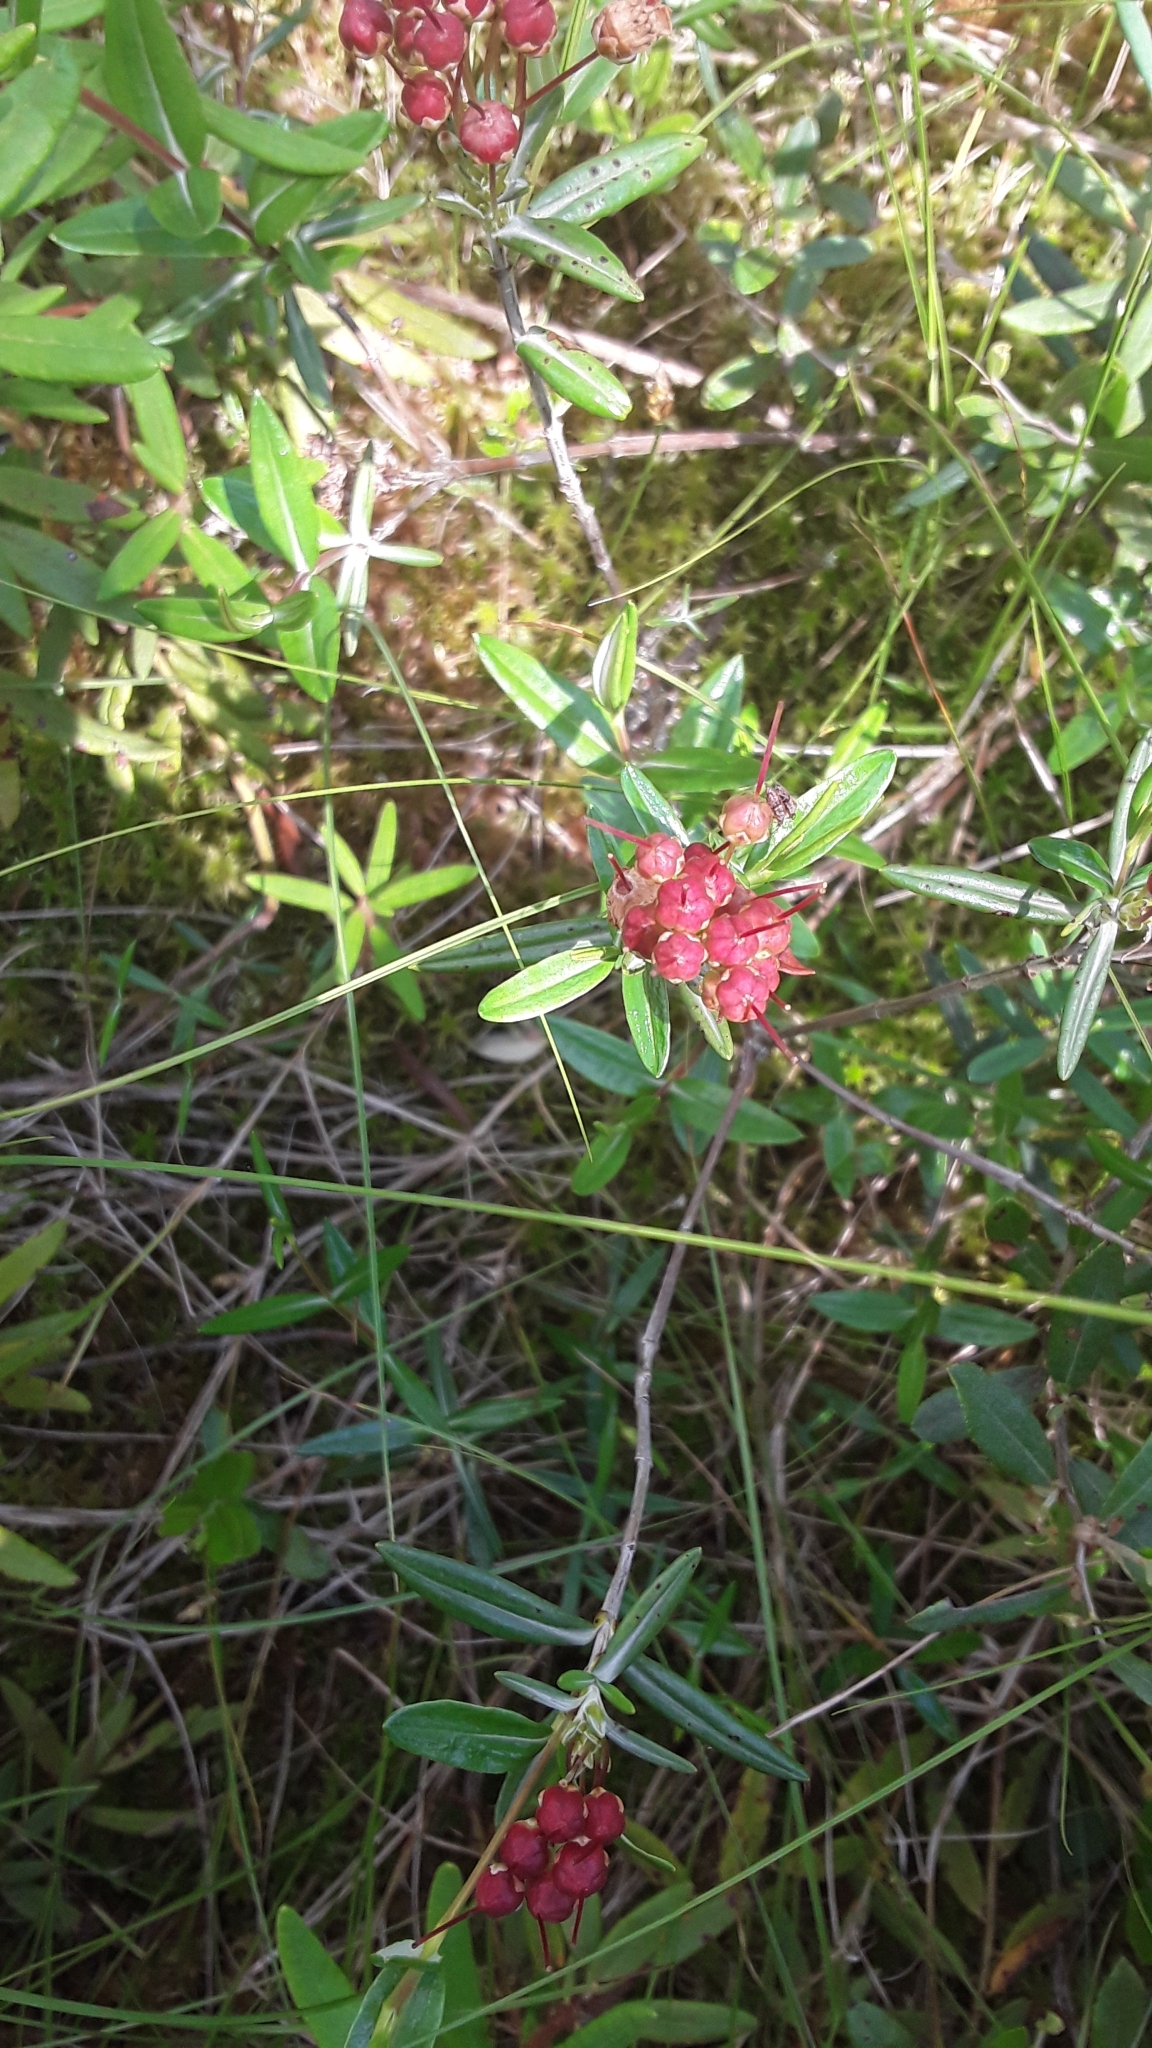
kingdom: Plantae
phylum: Tracheophyta
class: Magnoliopsida
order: Ericales
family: Ericaceae
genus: Kalmia
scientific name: Kalmia polifolia
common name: Bog-laurel
